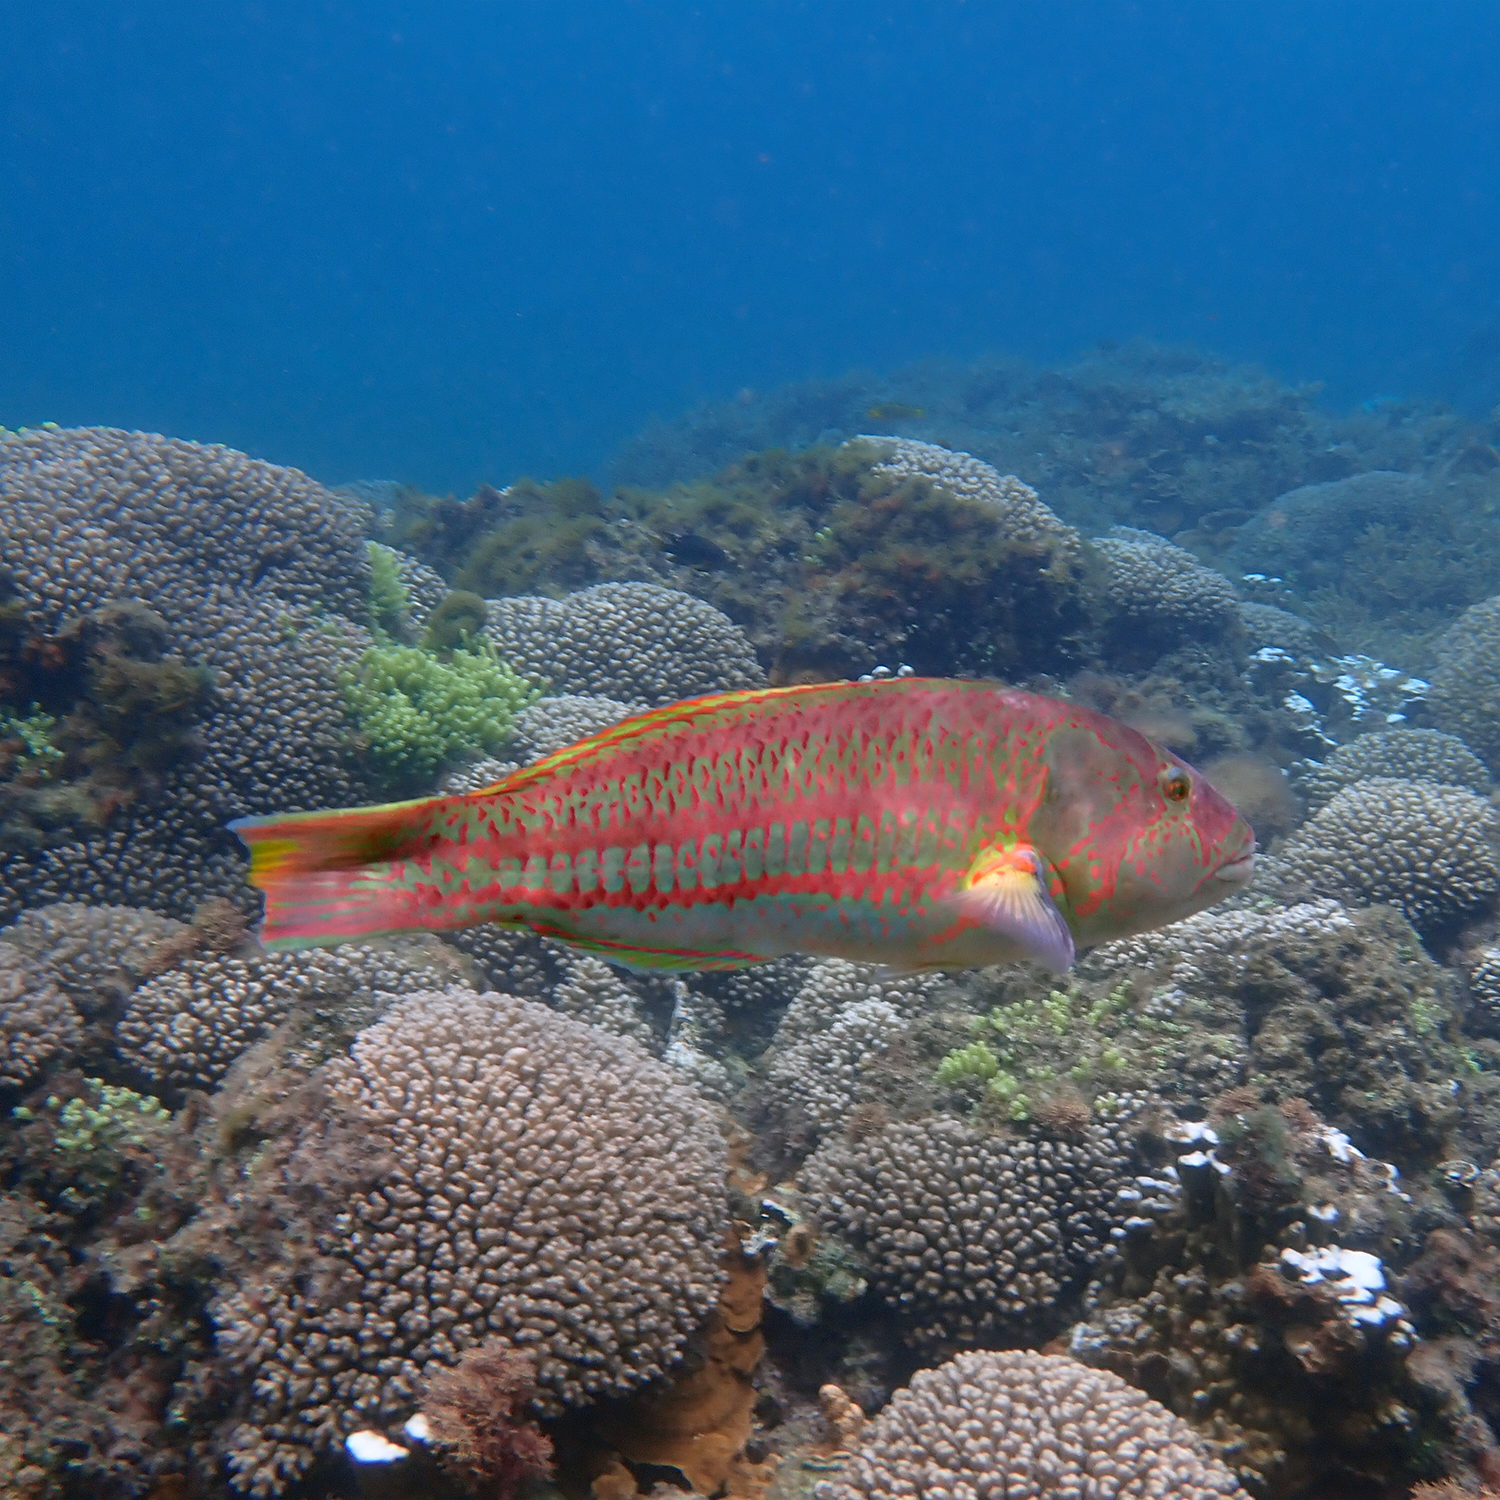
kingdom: Animalia
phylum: Chordata
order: Perciformes
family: Labridae
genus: Thalassoma
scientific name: Thalassoma purpureum
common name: Parrotfish
